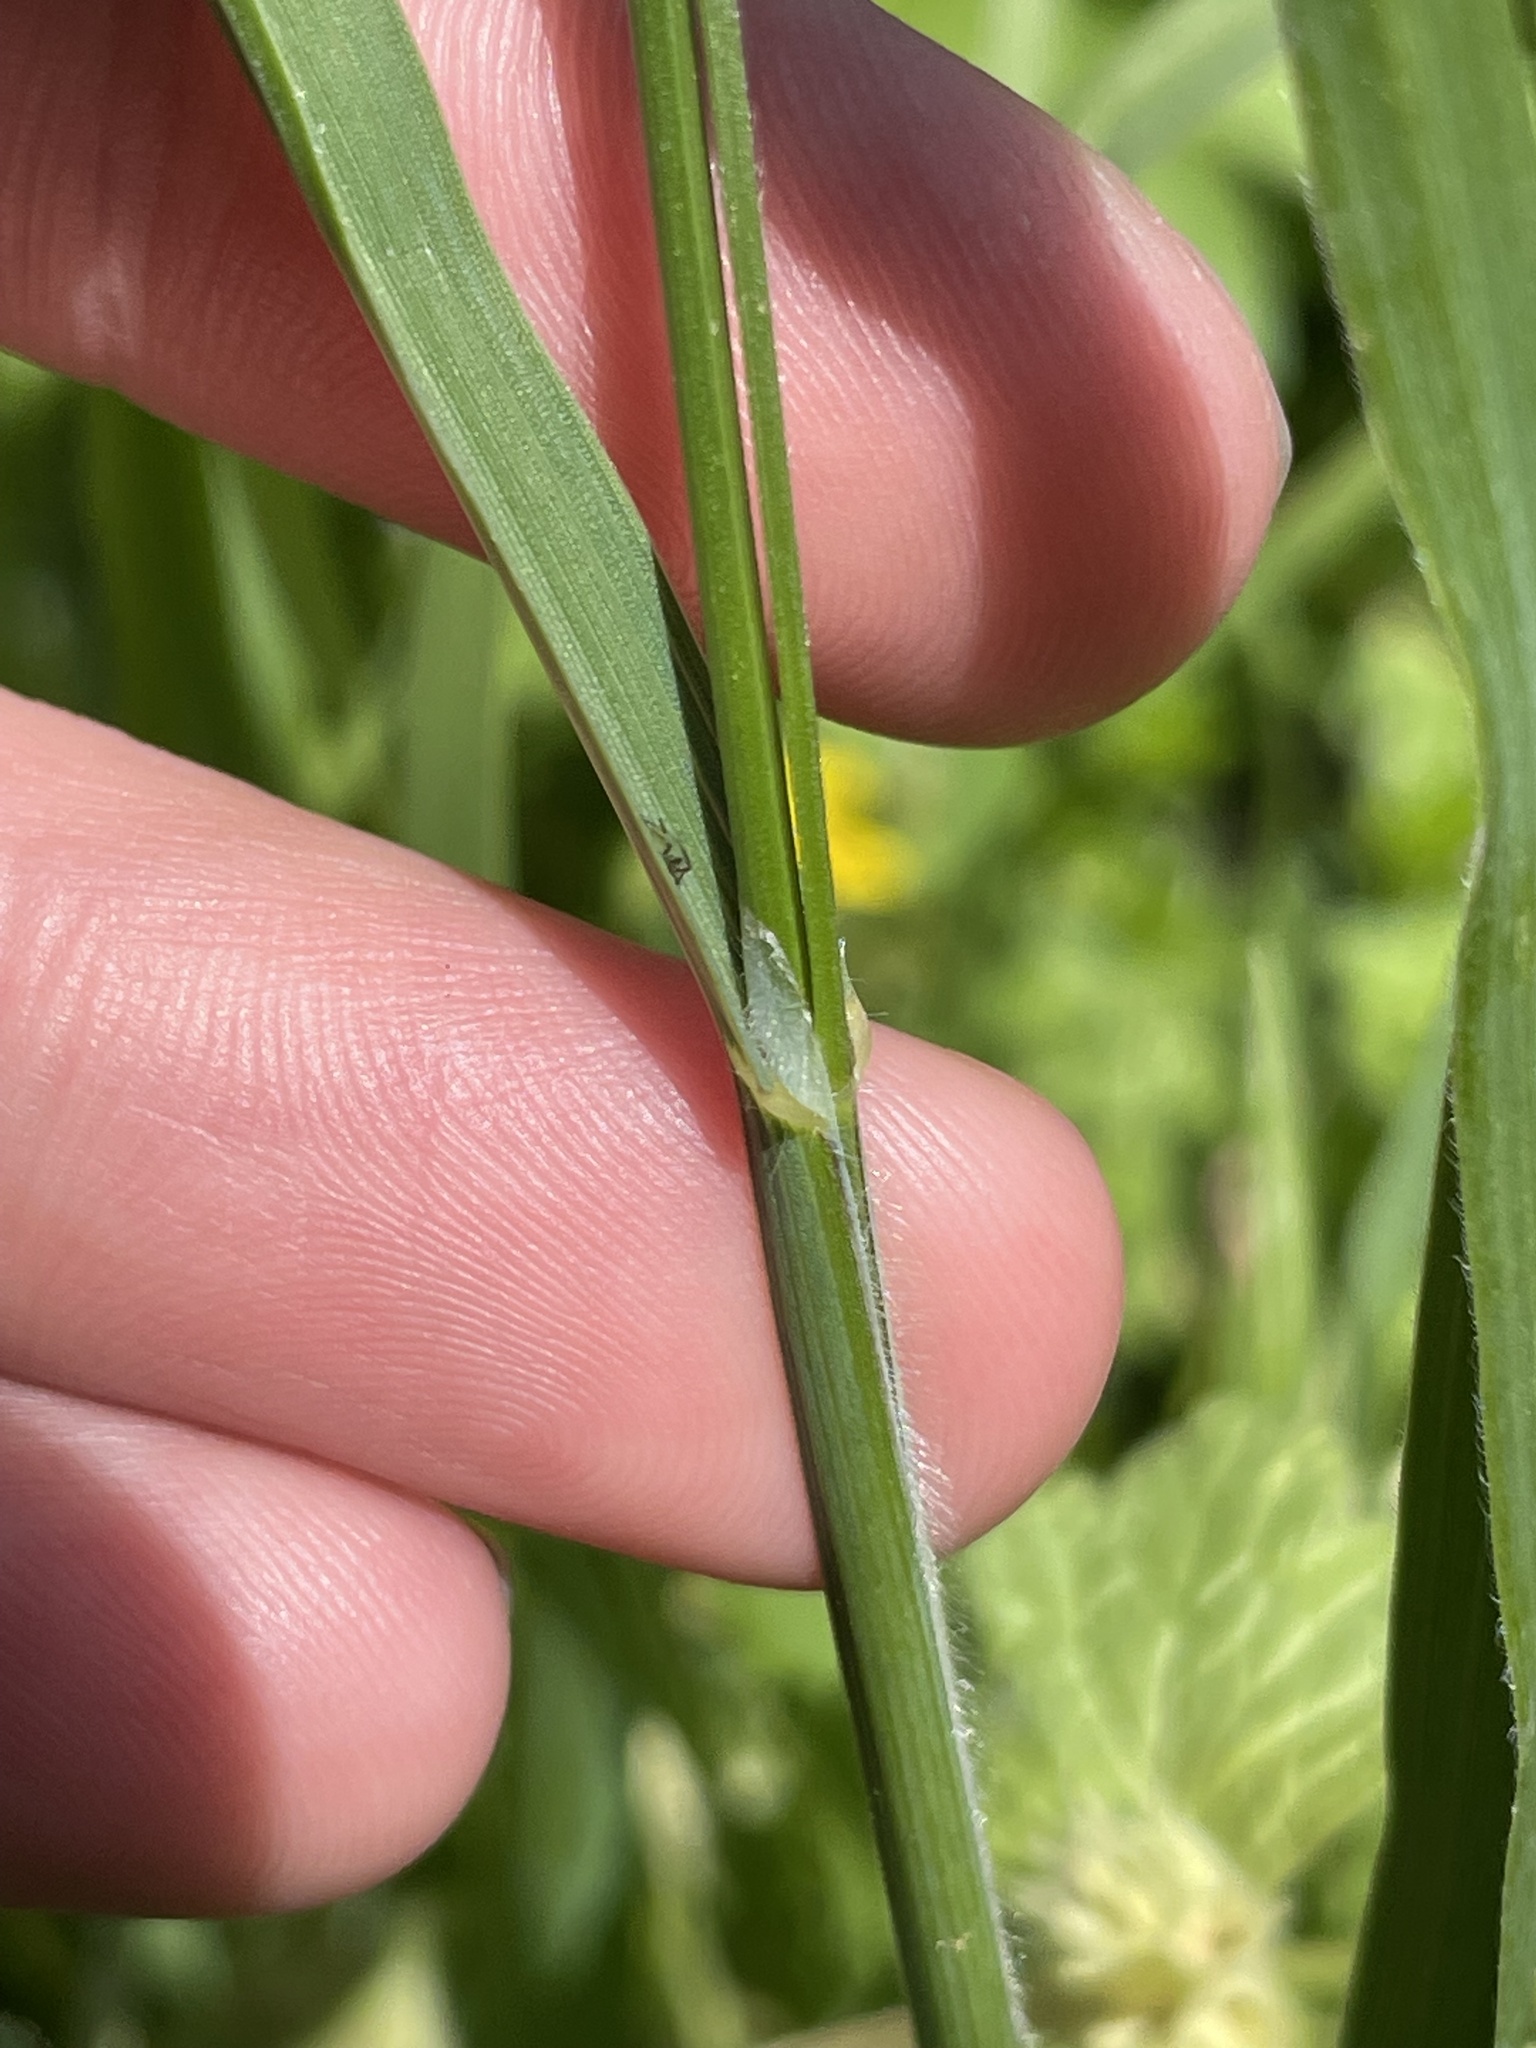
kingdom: Plantae
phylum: Tracheophyta
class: Liliopsida
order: Poales
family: Poaceae
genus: Bromus
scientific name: Bromus catharticus
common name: Rescuegrass
